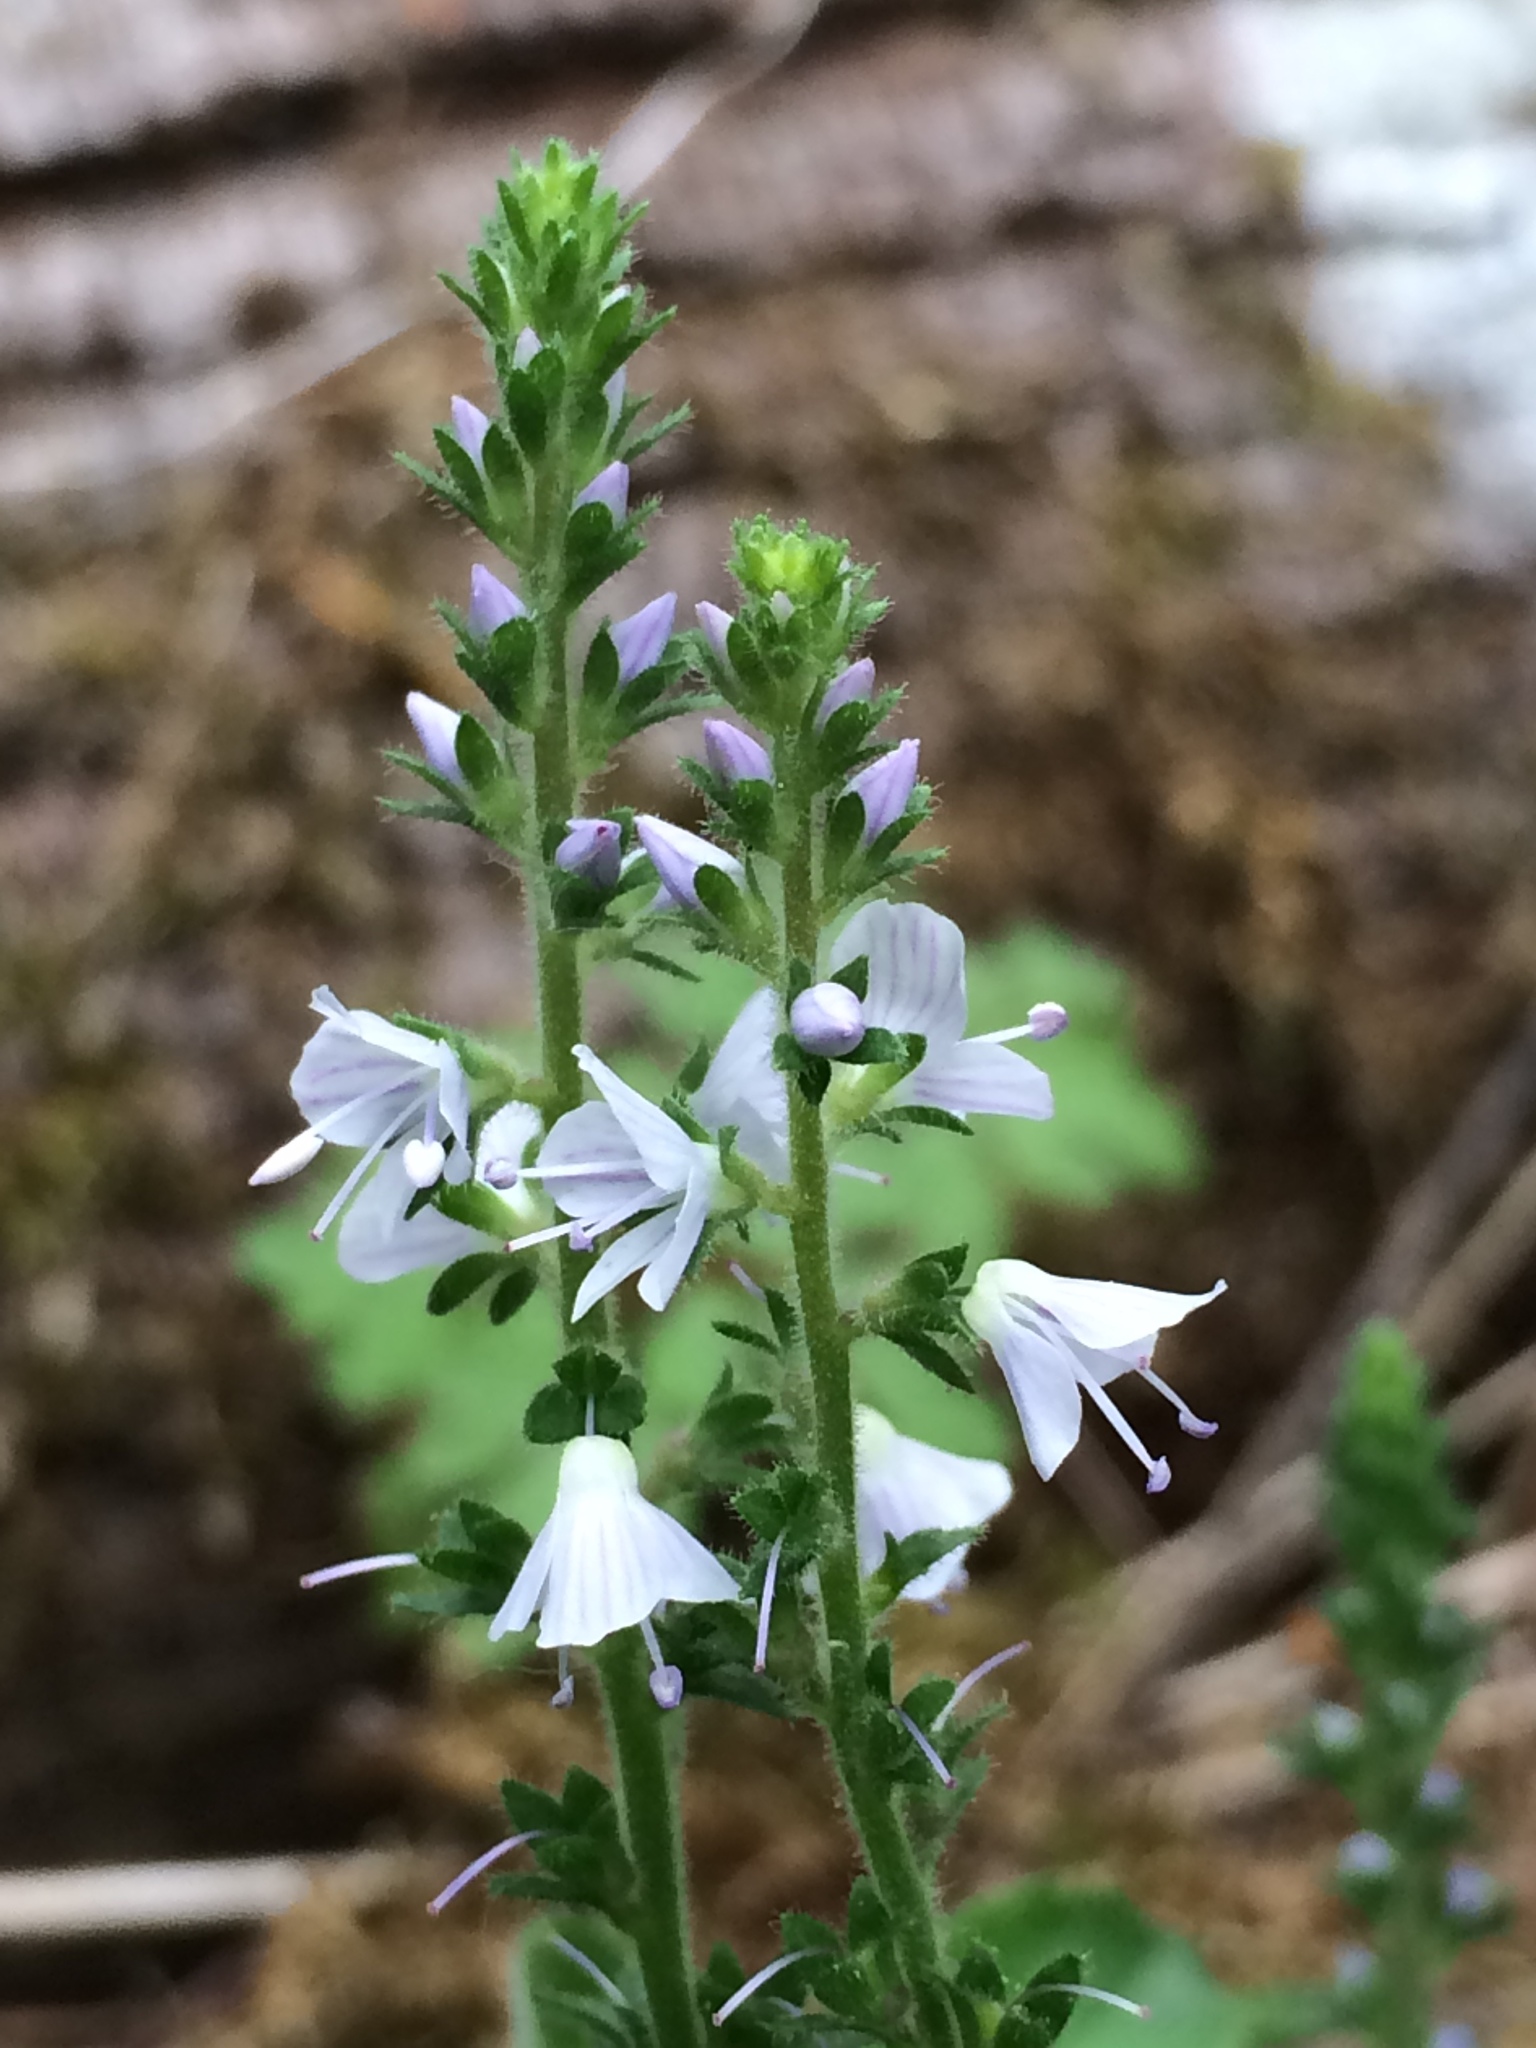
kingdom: Plantae
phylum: Tracheophyta
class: Magnoliopsida
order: Lamiales
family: Plantaginaceae
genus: Veronica
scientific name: Veronica officinalis
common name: Common speedwell
